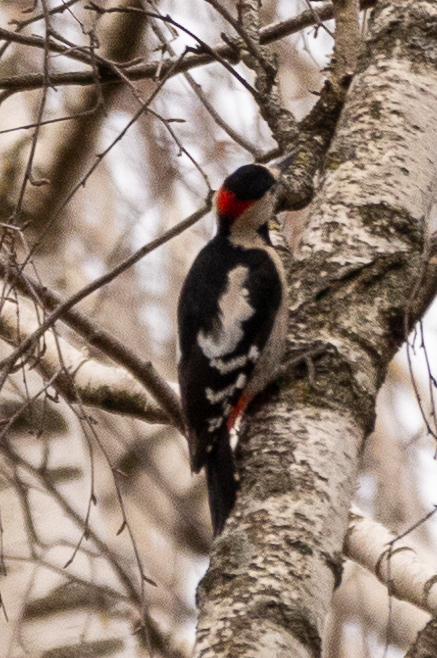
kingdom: Animalia
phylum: Chordata
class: Aves
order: Piciformes
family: Picidae
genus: Dendrocopos
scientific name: Dendrocopos syriacus
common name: Syrian woodpecker
